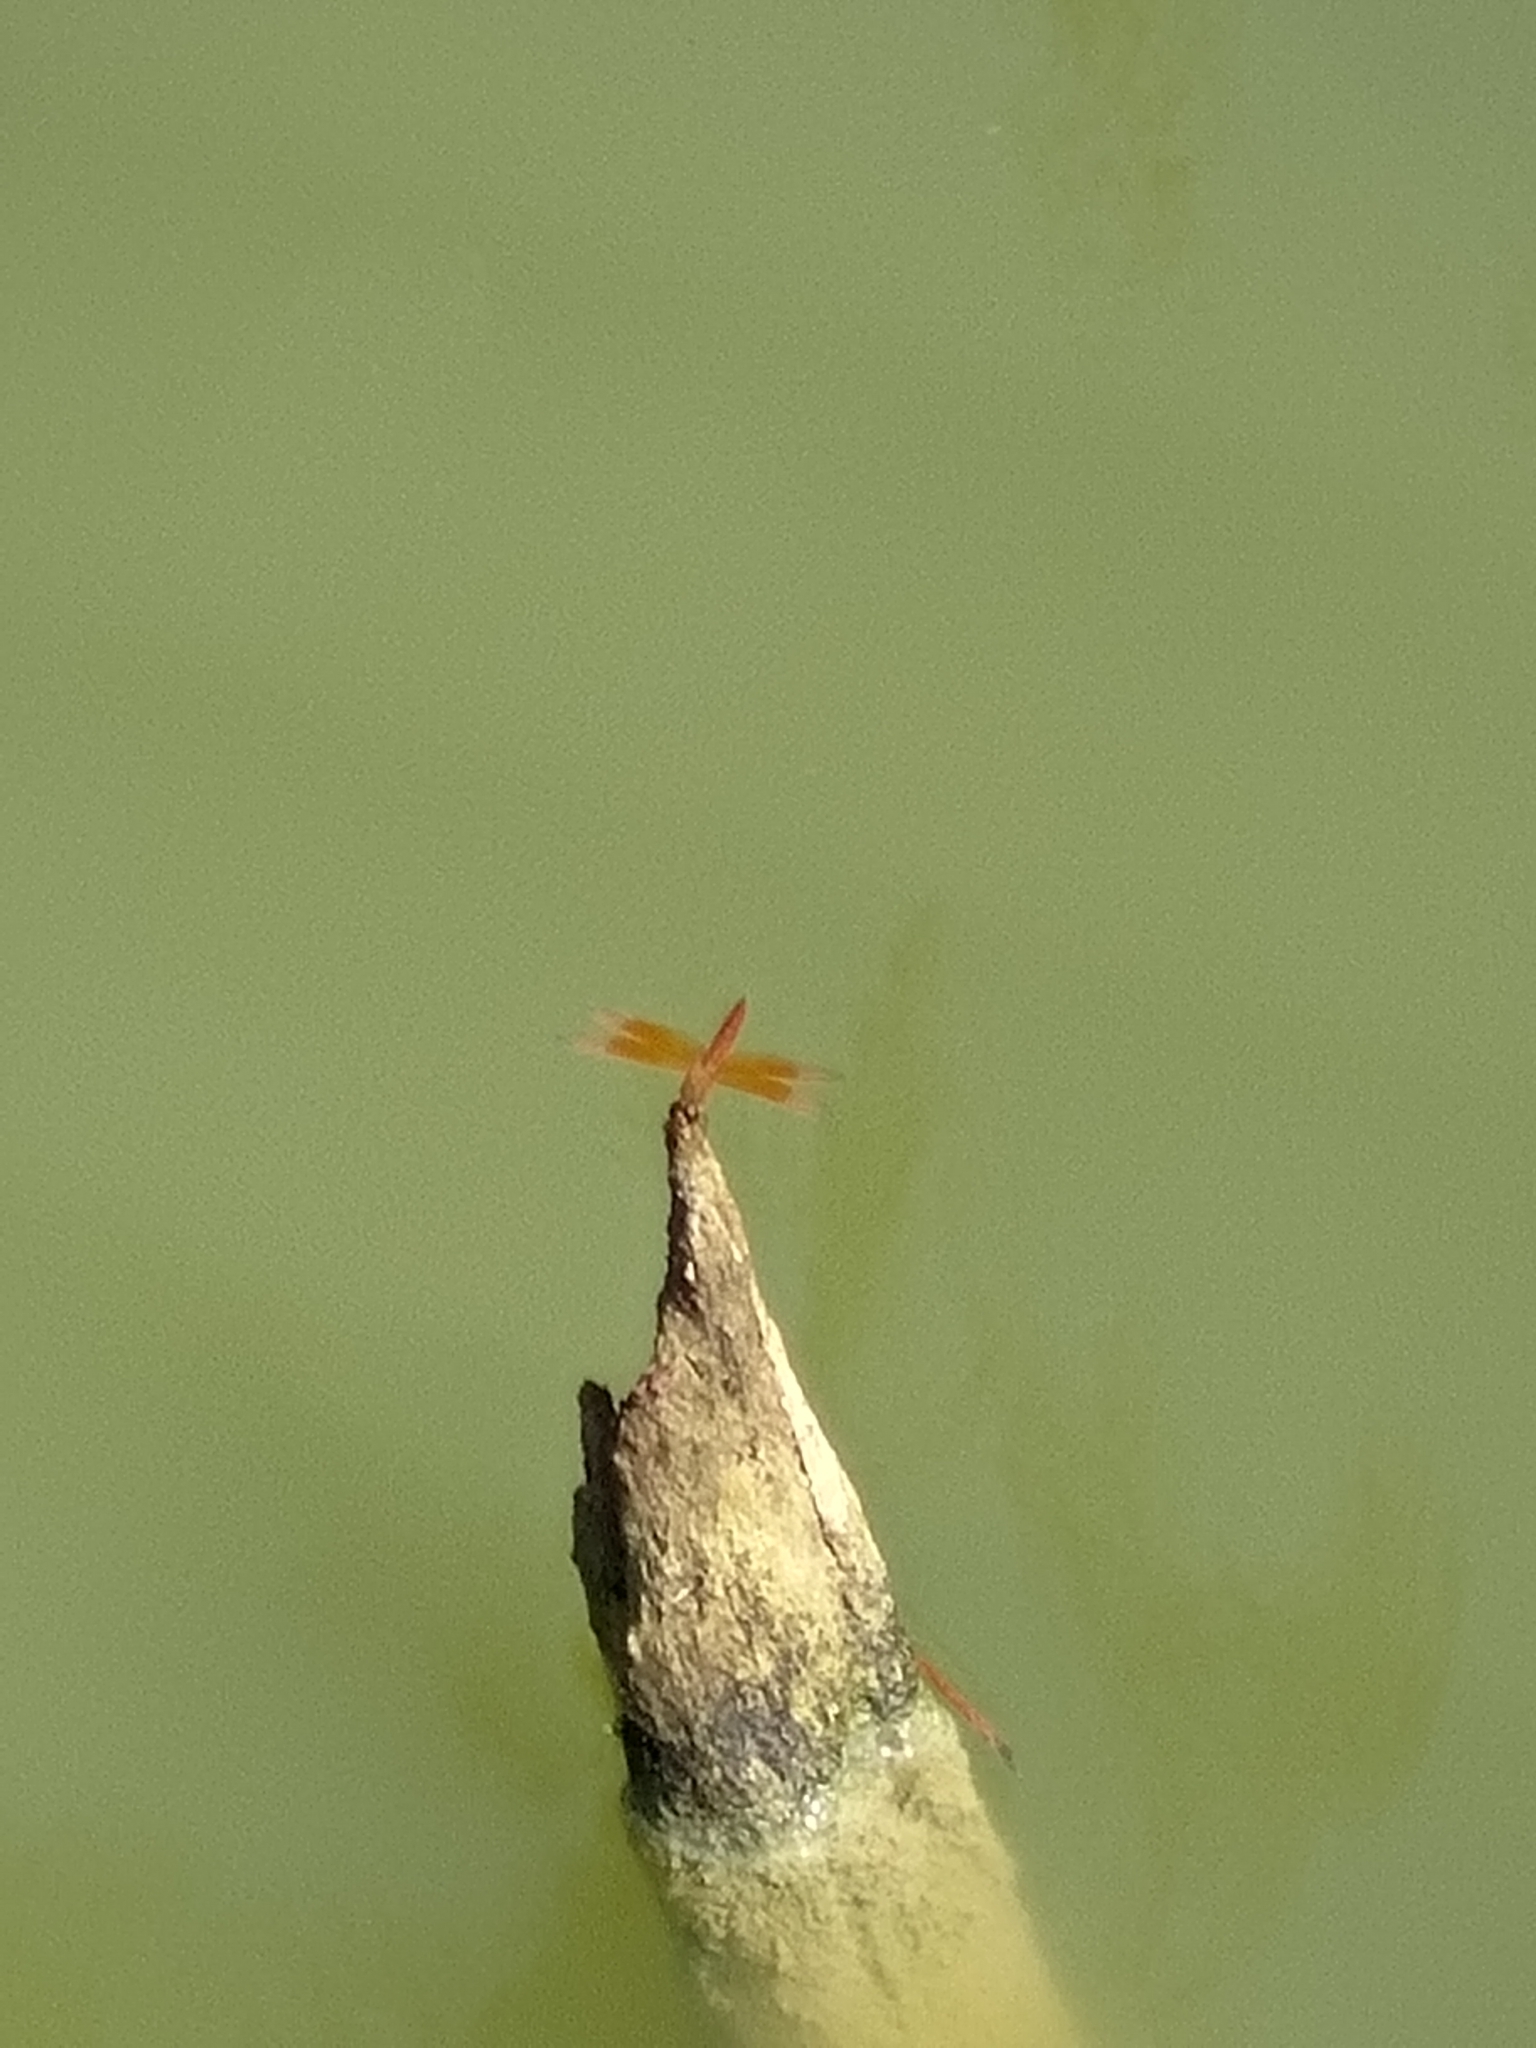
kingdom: Animalia
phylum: Arthropoda
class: Insecta
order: Odonata
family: Libellulidae
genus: Brachythemis
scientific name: Brachythemis contaminata
